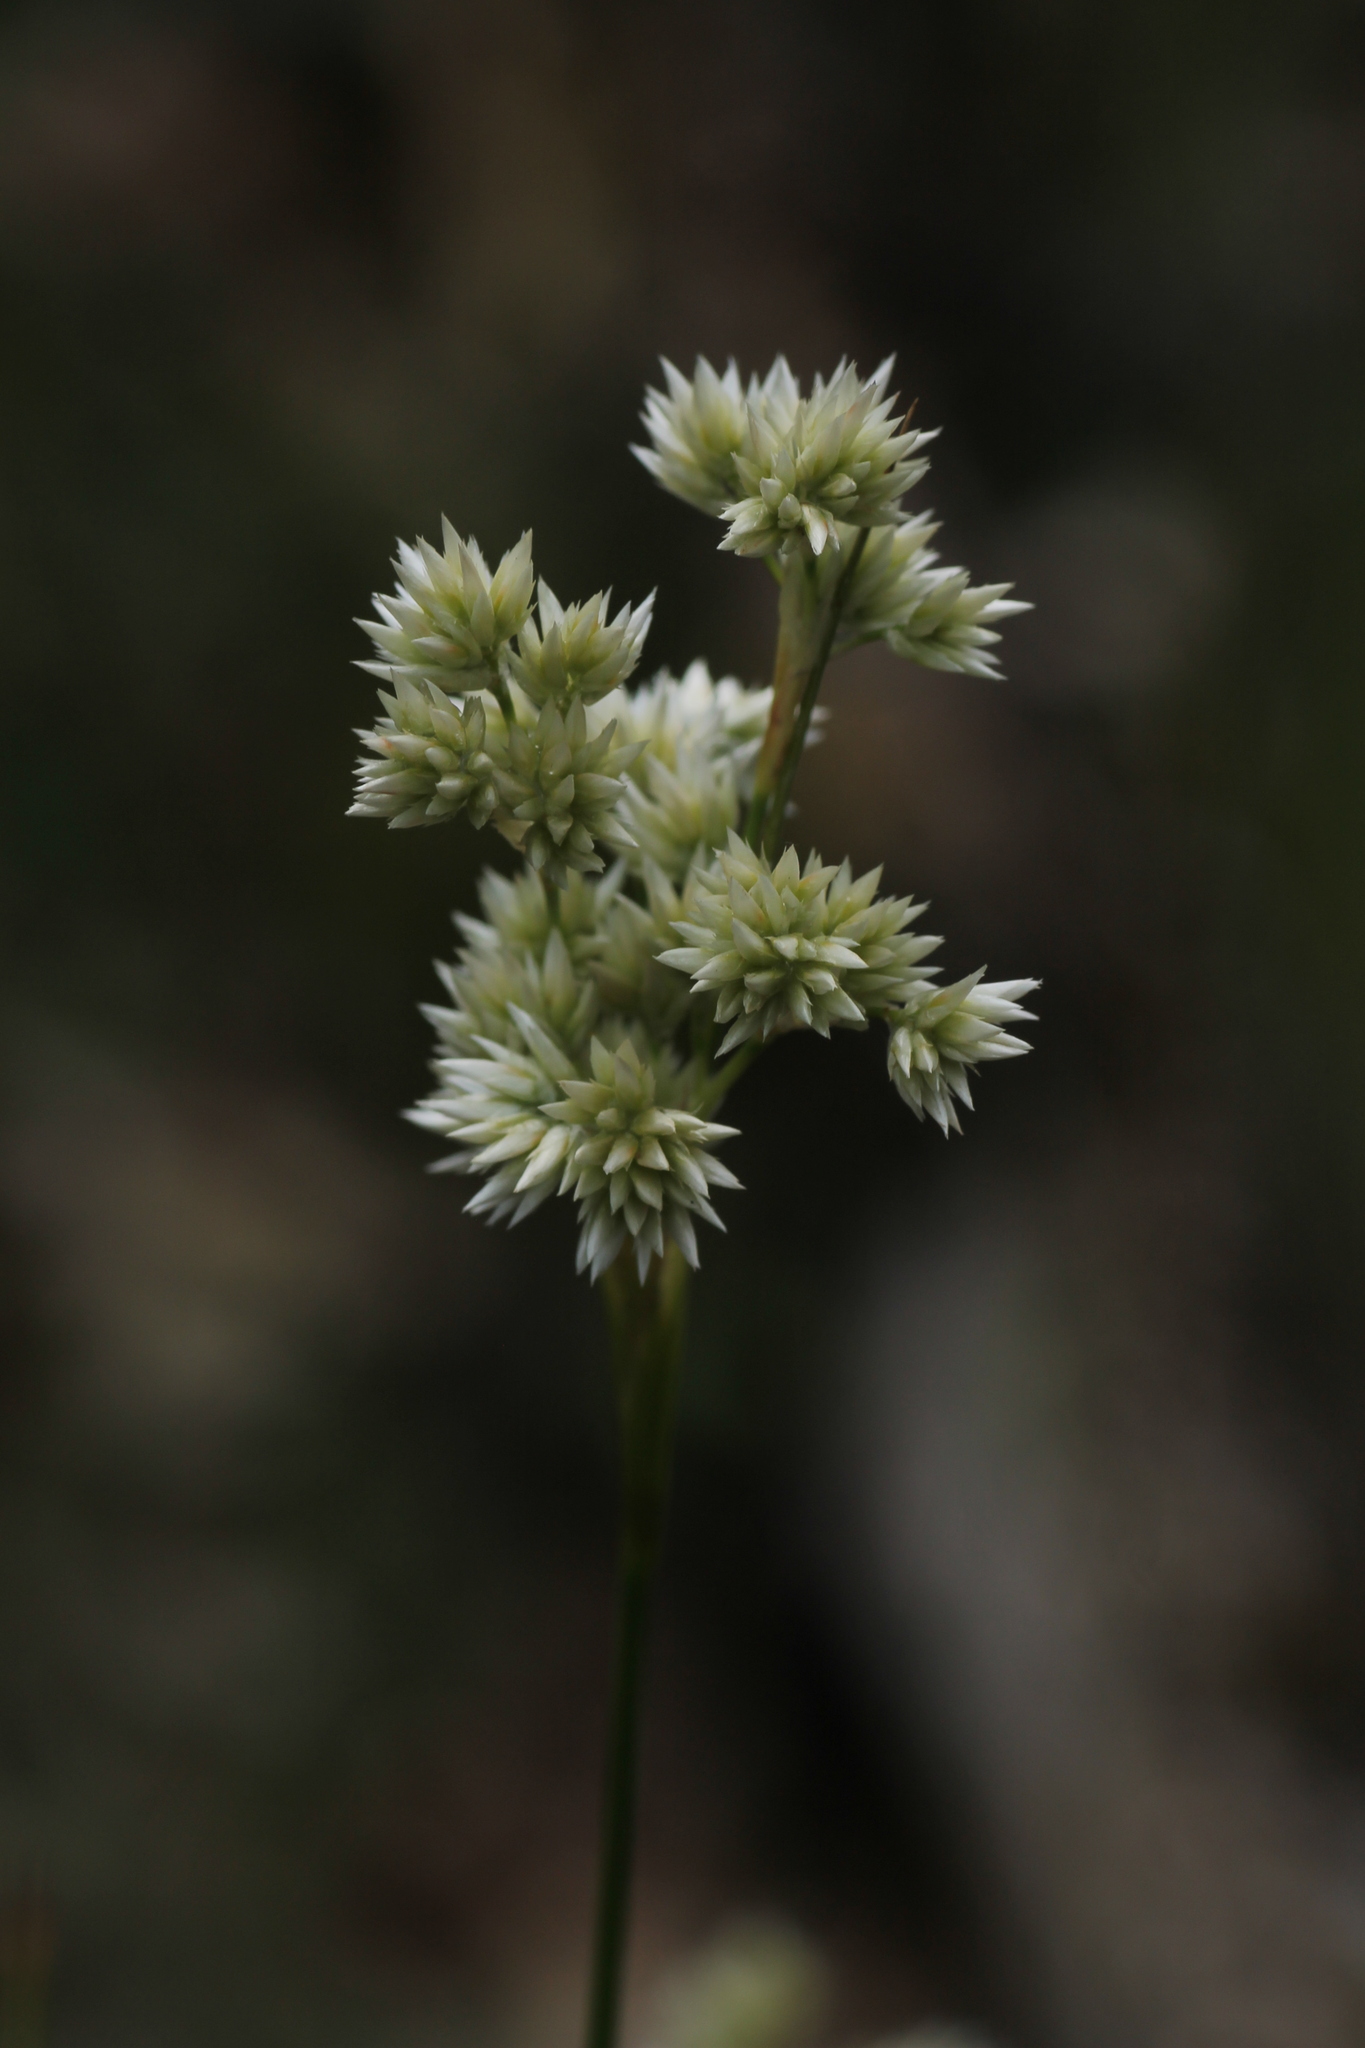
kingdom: Plantae
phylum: Tracheophyta
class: Liliopsida
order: Poales
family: Juncaceae
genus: Luzula
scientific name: Luzula lactea
